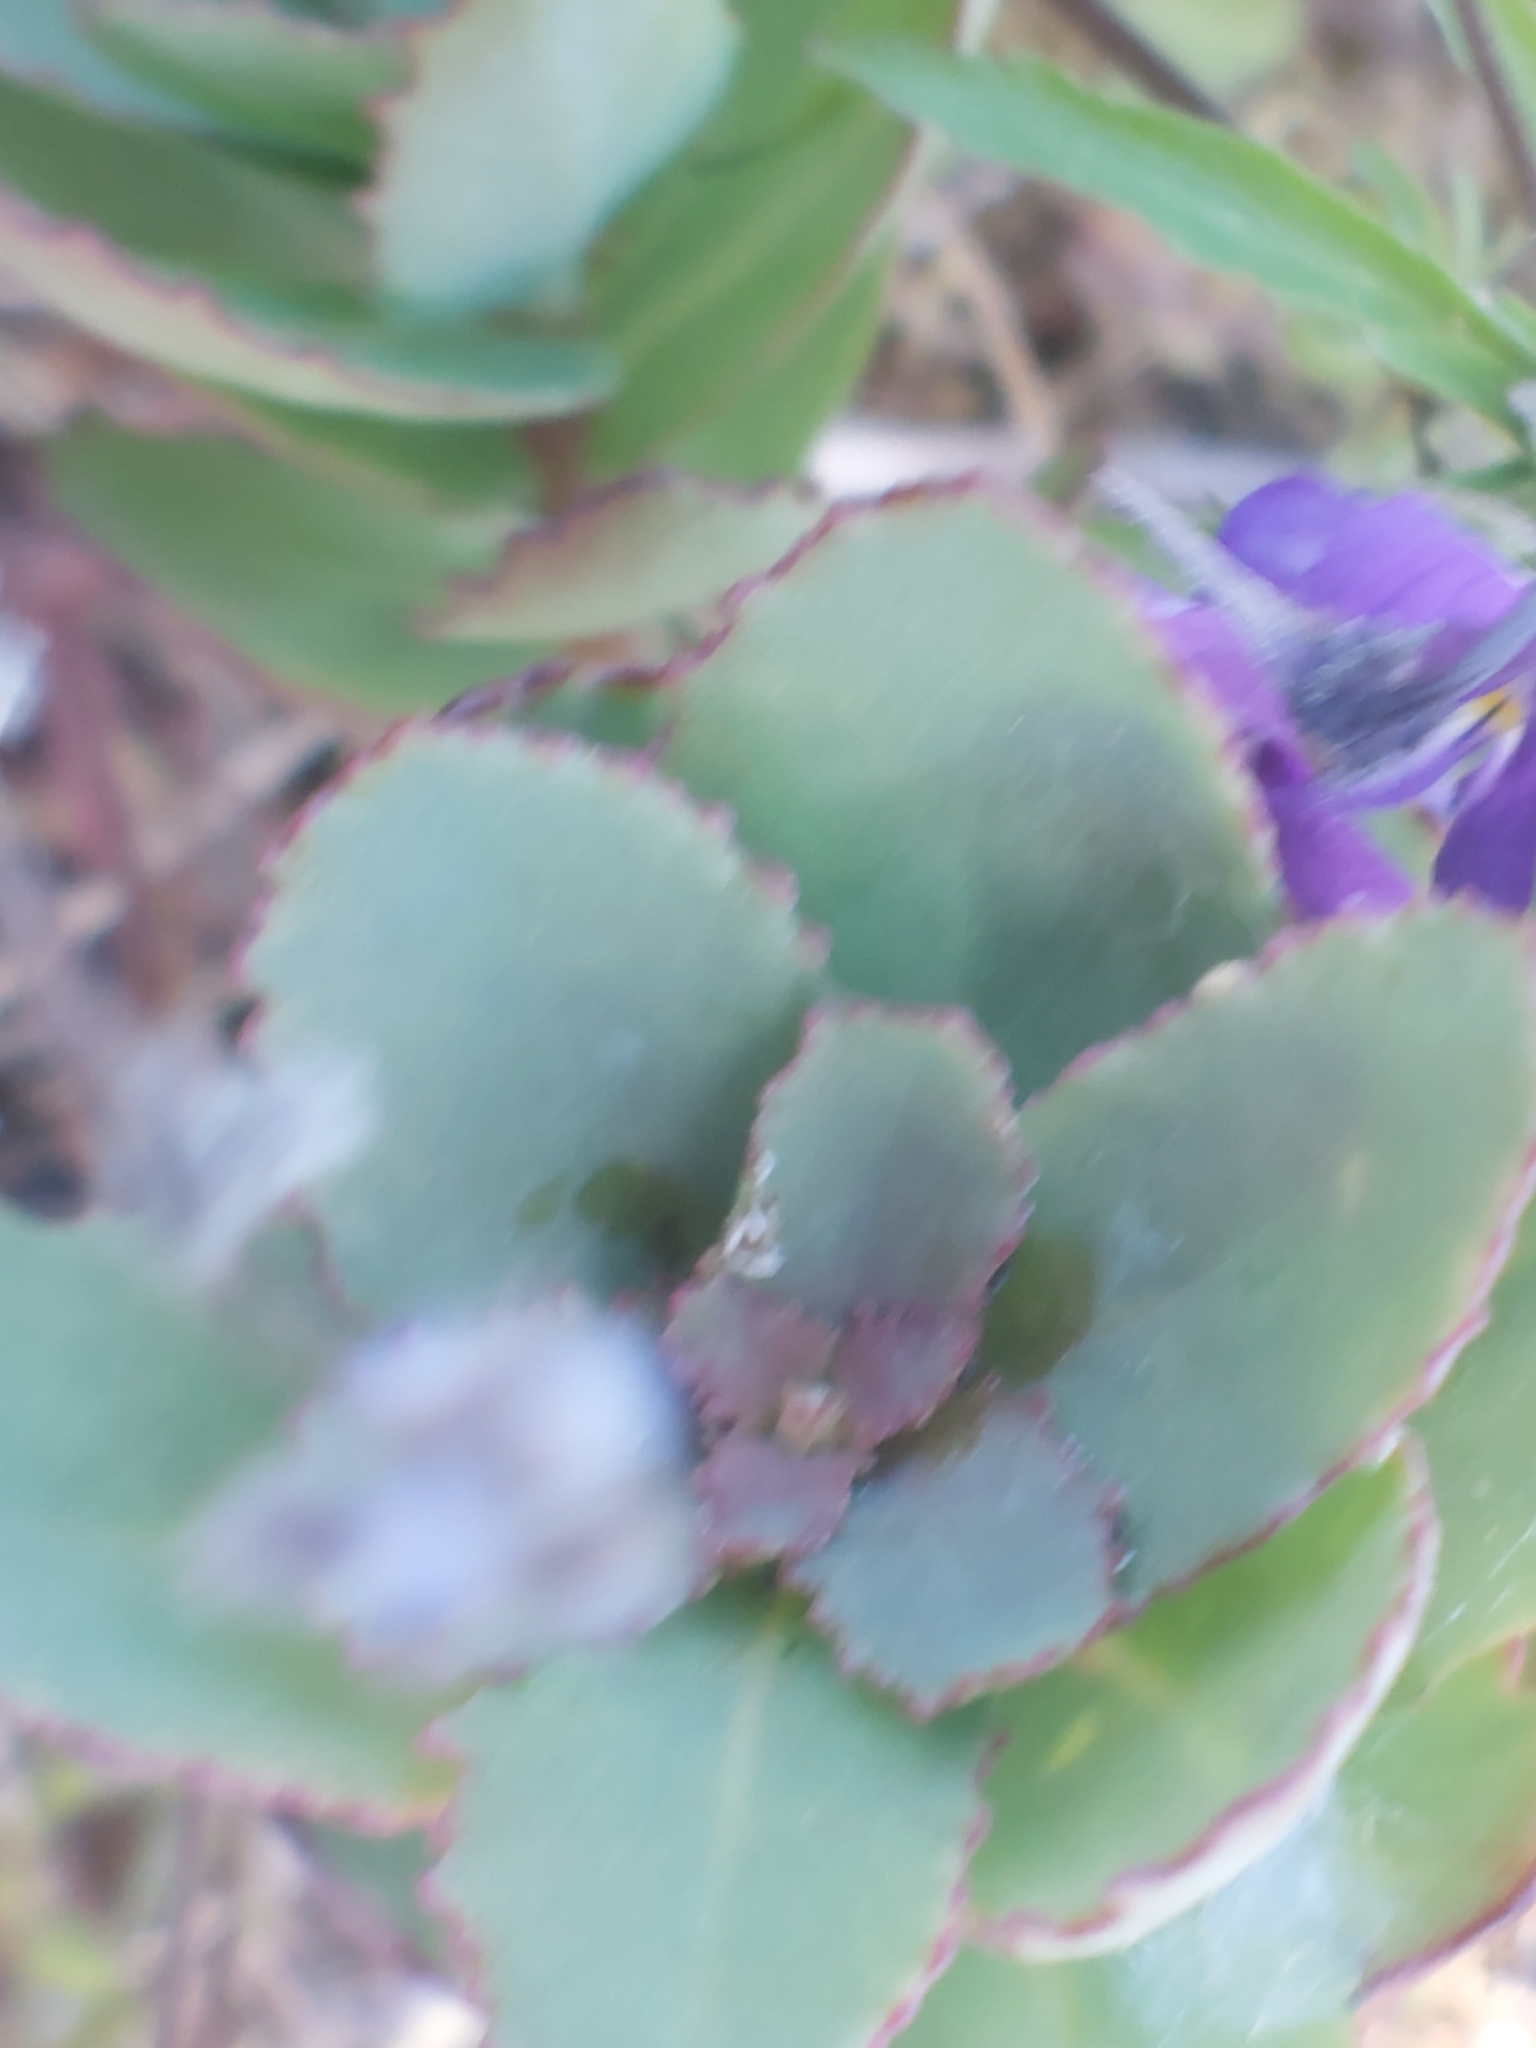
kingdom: Plantae
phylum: Tracheophyta
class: Magnoliopsida
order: Saxifragales
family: Crassulaceae
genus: Hylotelephium
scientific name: Hylotelephium maximum
